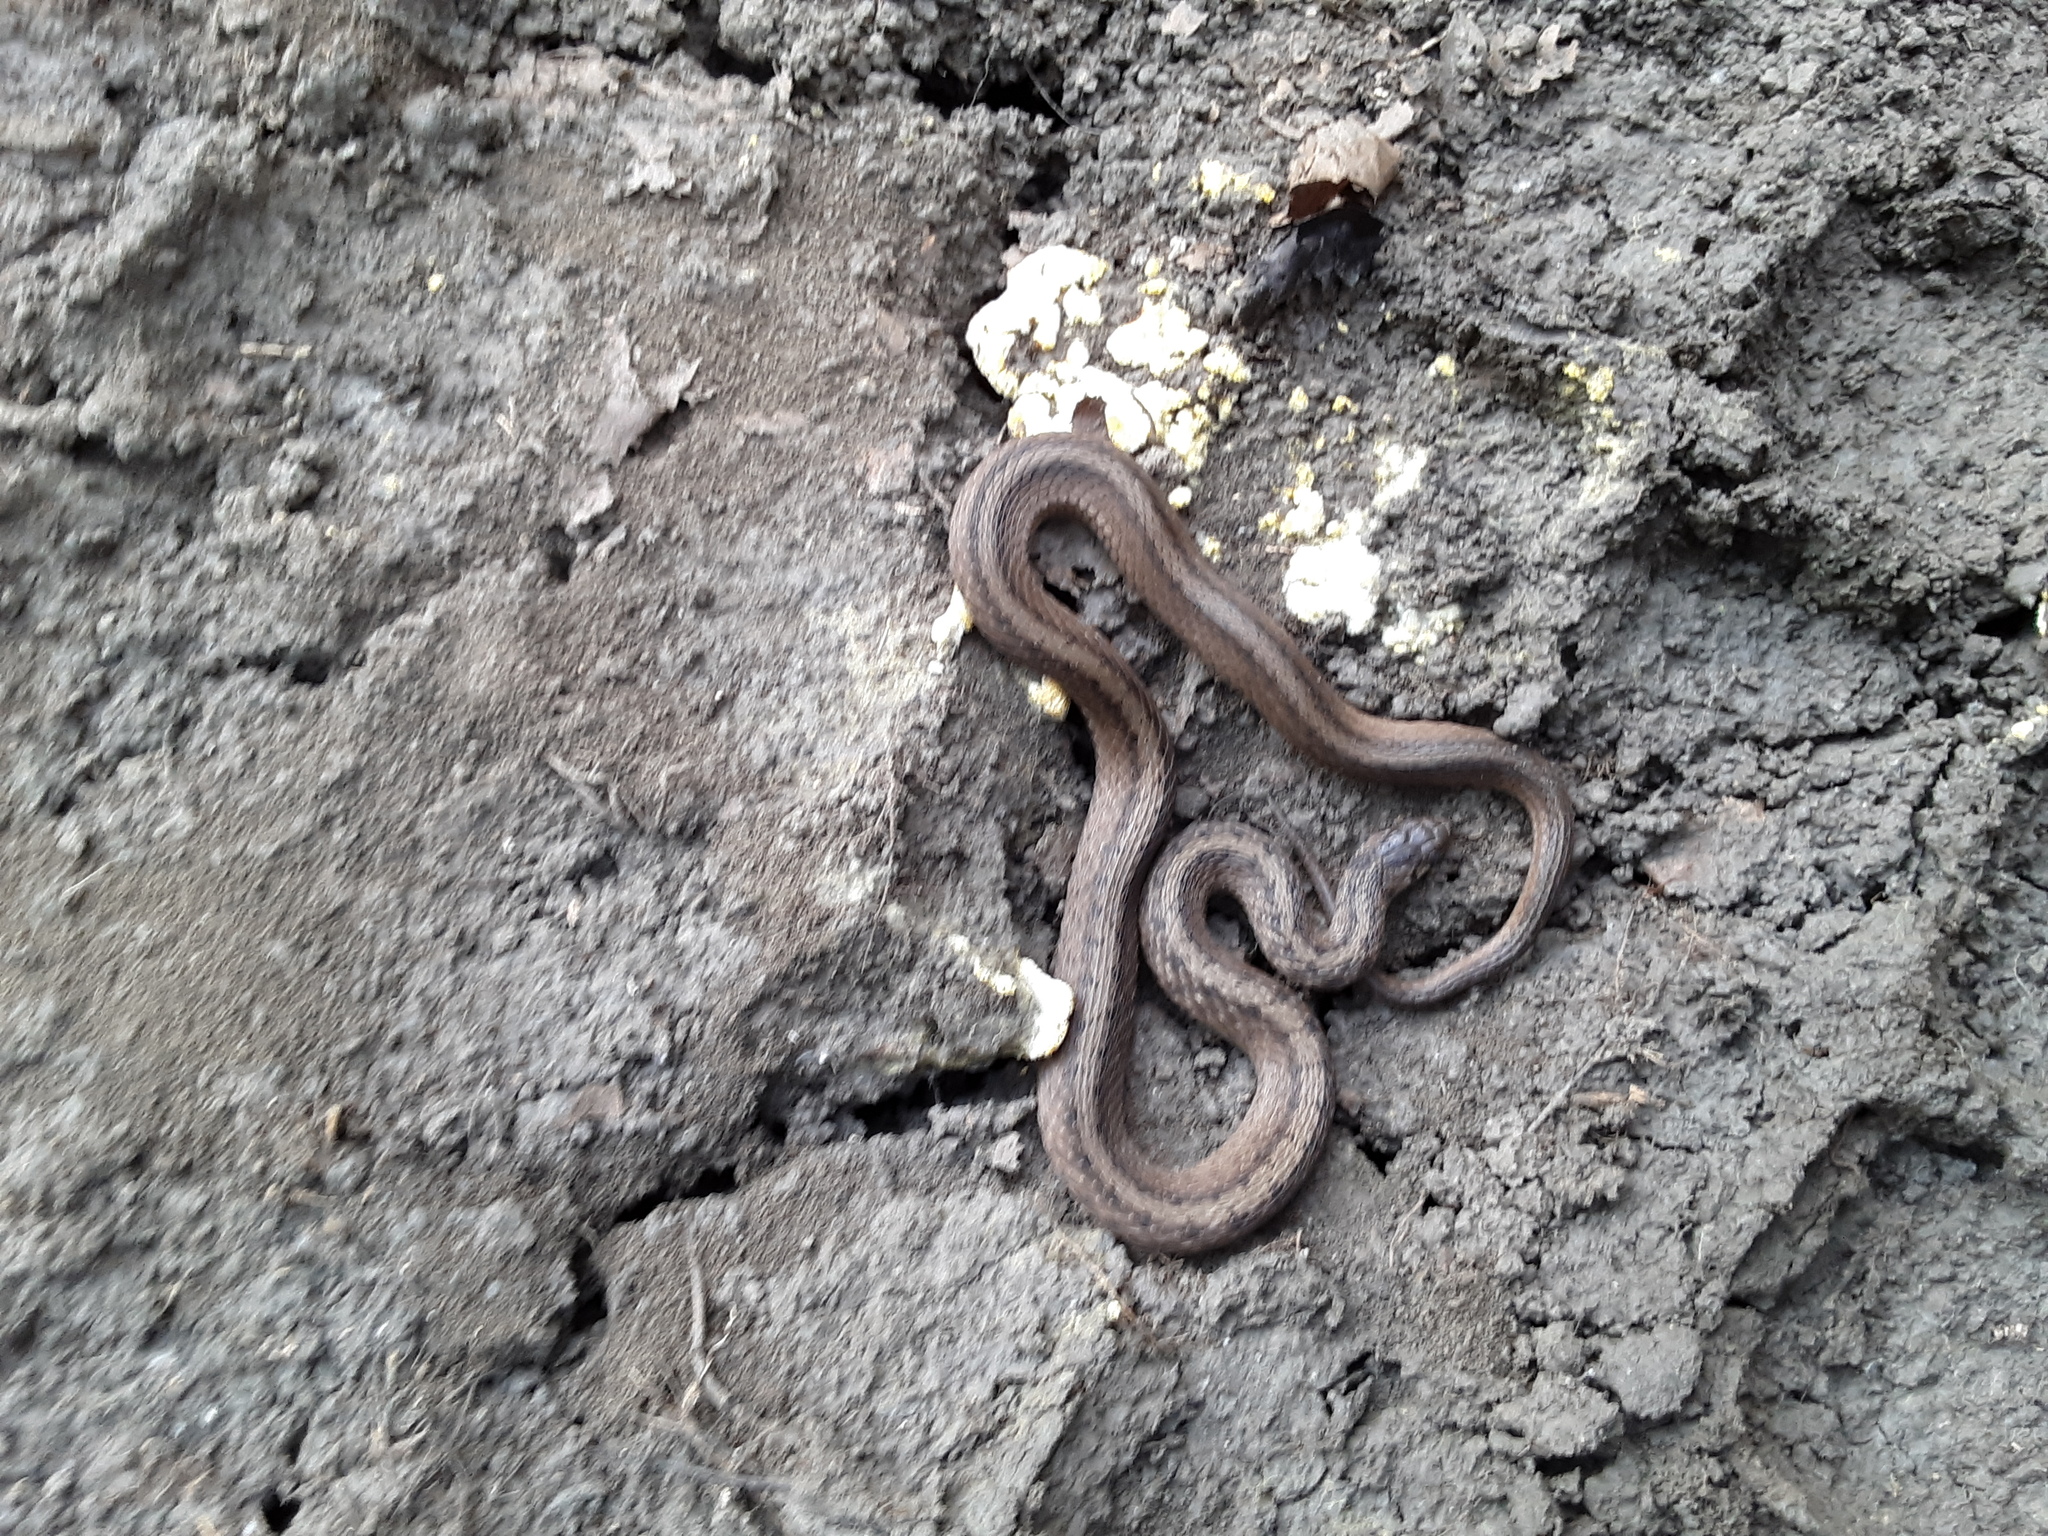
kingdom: Animalia
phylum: Chordata
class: Squamata
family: Colubridae
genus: Storeria
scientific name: Storeria dekayi
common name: (dekay’s) brown snake
